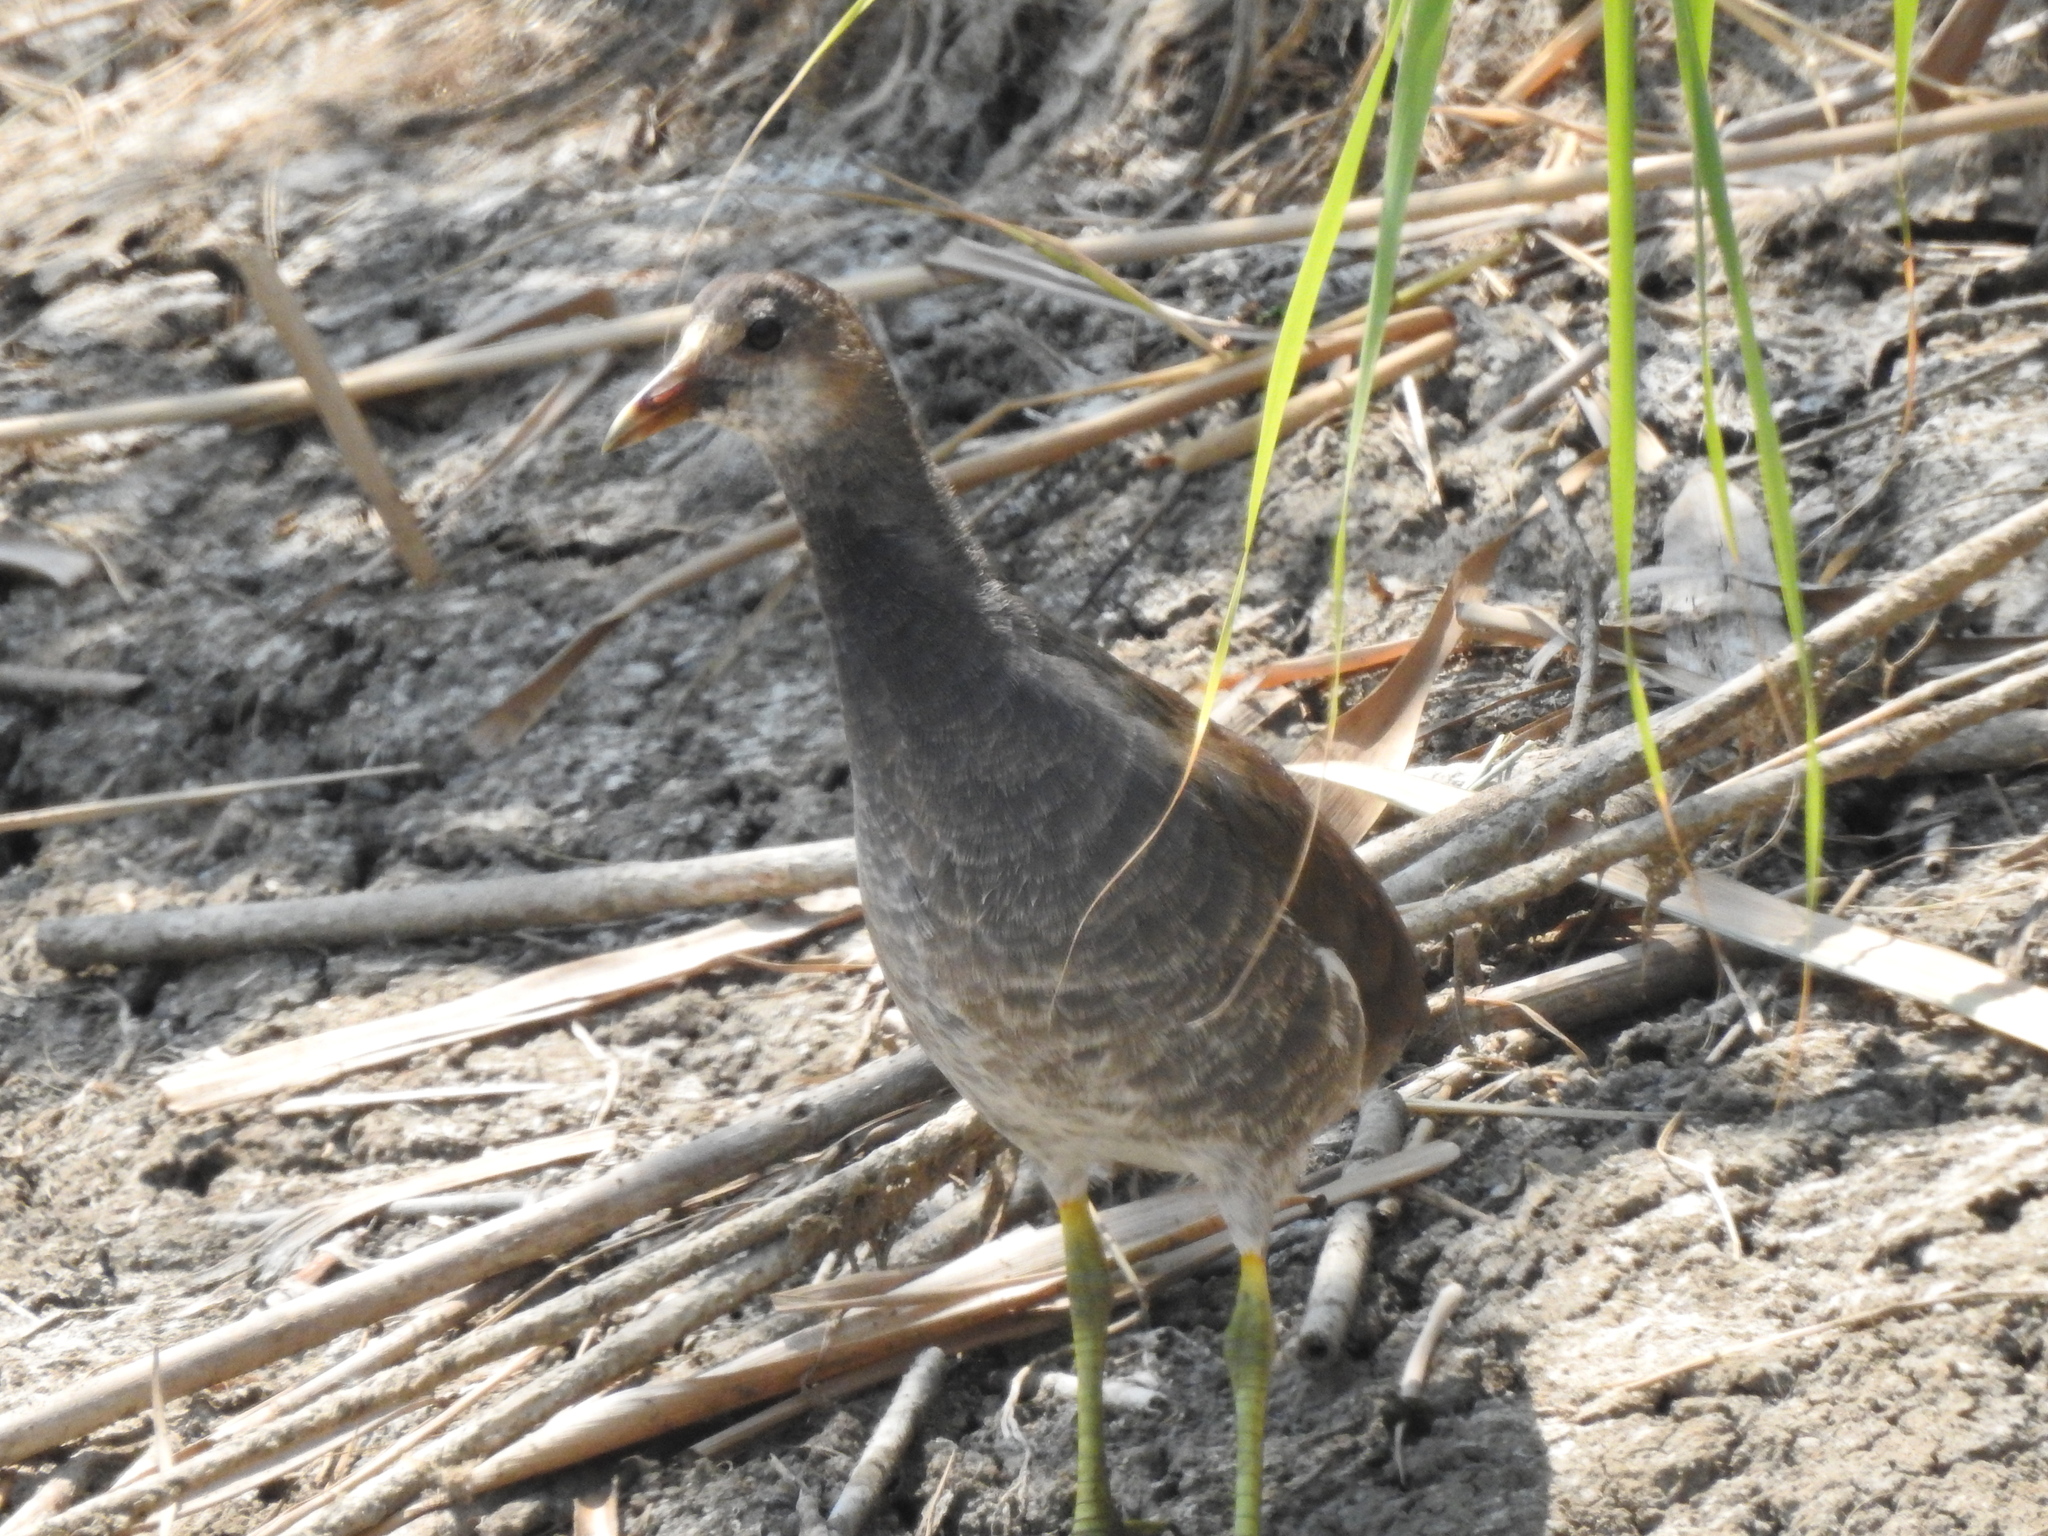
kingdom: Animalia
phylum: Chordata
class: Aves
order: Gruiformes
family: Rallidae
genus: Gallinula
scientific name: Gallinula chloropus
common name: Common moorhen
